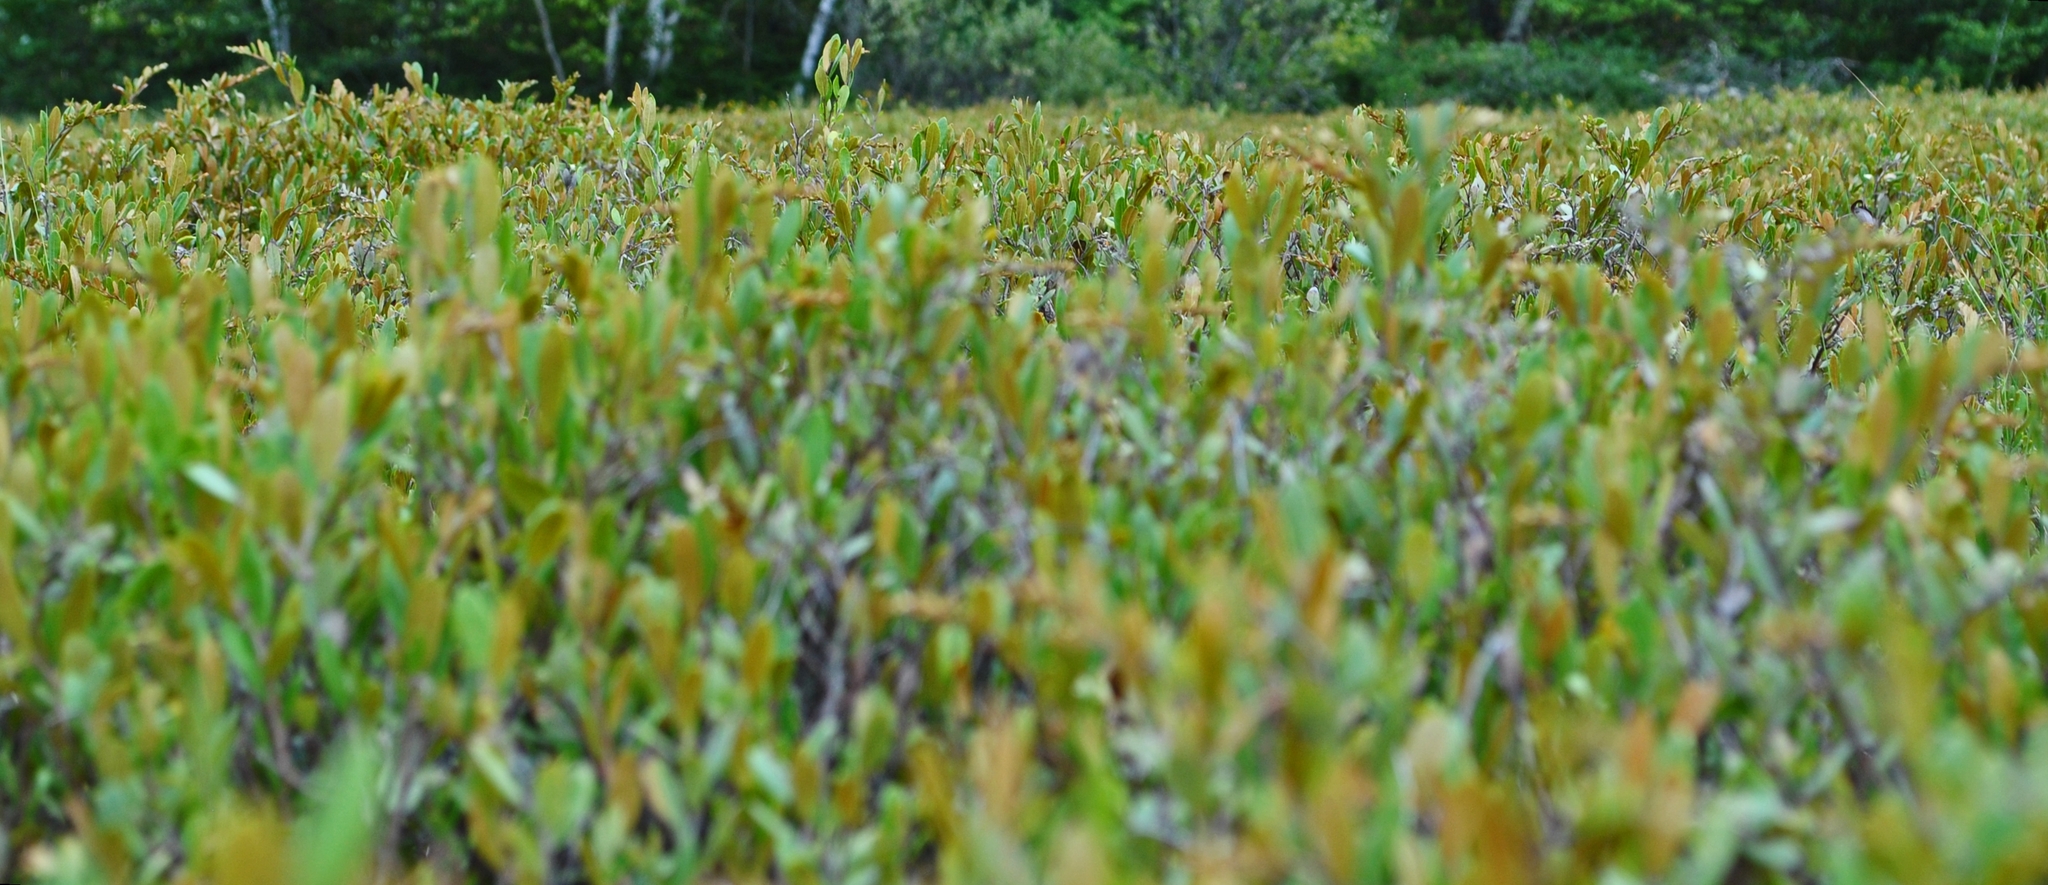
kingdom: Plantae
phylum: Tracheophyta
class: Magnoliopsida
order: Ericales
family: Ericaceae
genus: Chamaedaphne
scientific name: Chamaedaphne calyculata
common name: Leatherleaf
